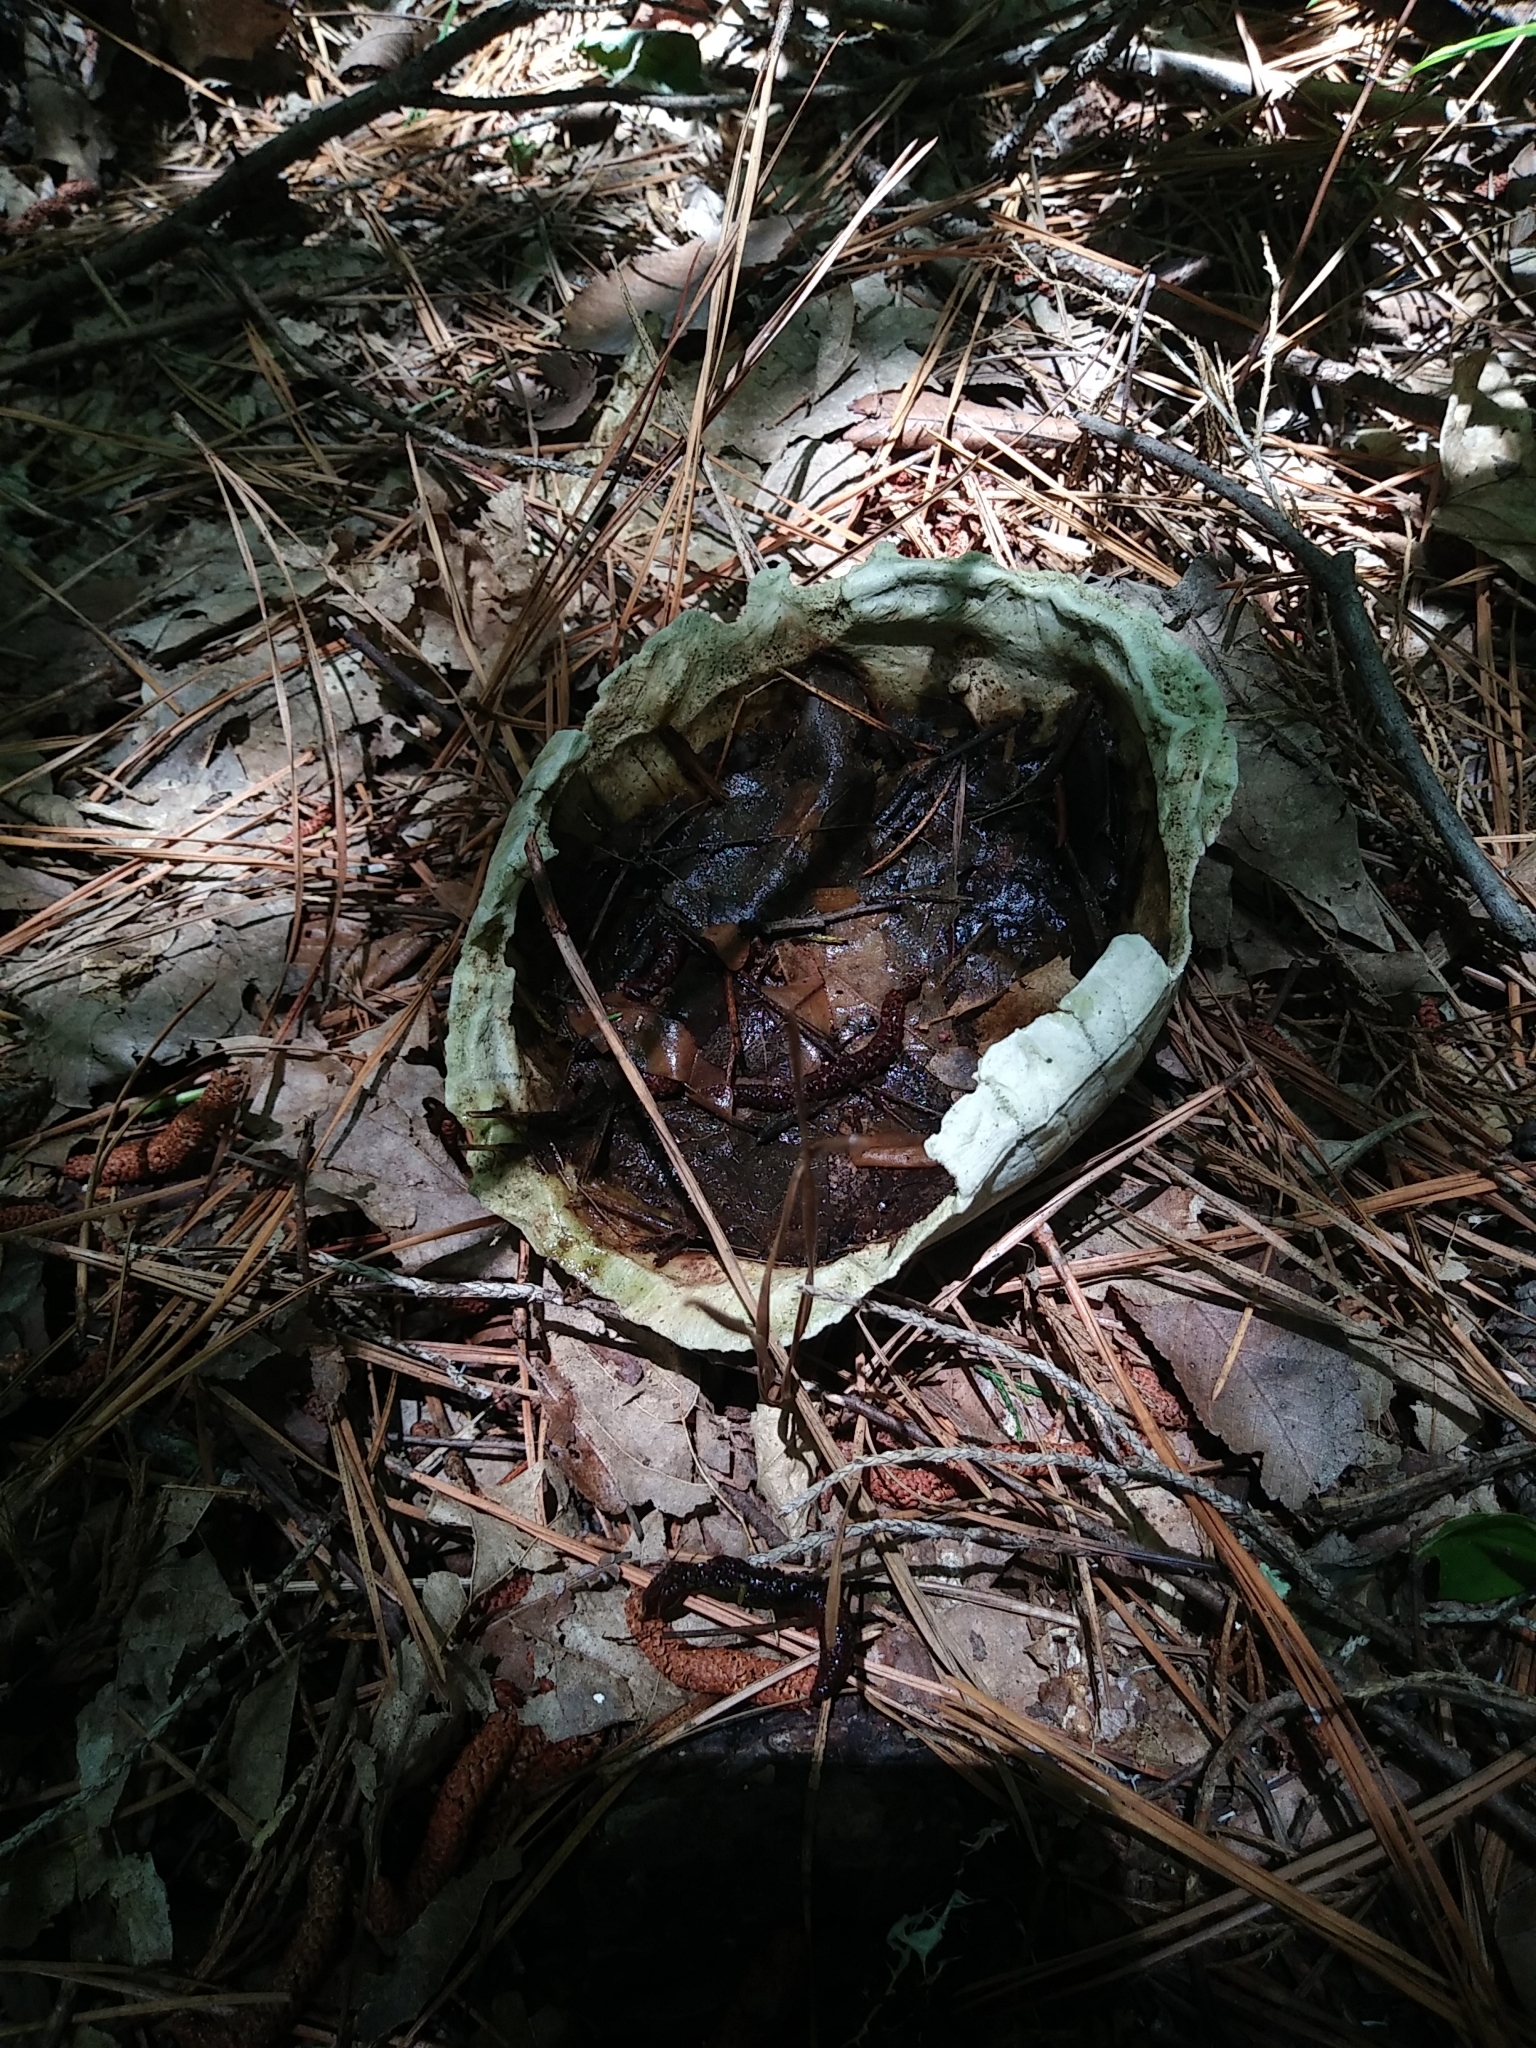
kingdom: Animalia
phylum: Chordata
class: Testudines
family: Emydidae
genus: Terrapene
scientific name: Terrapene carolina
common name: Common box turtle
